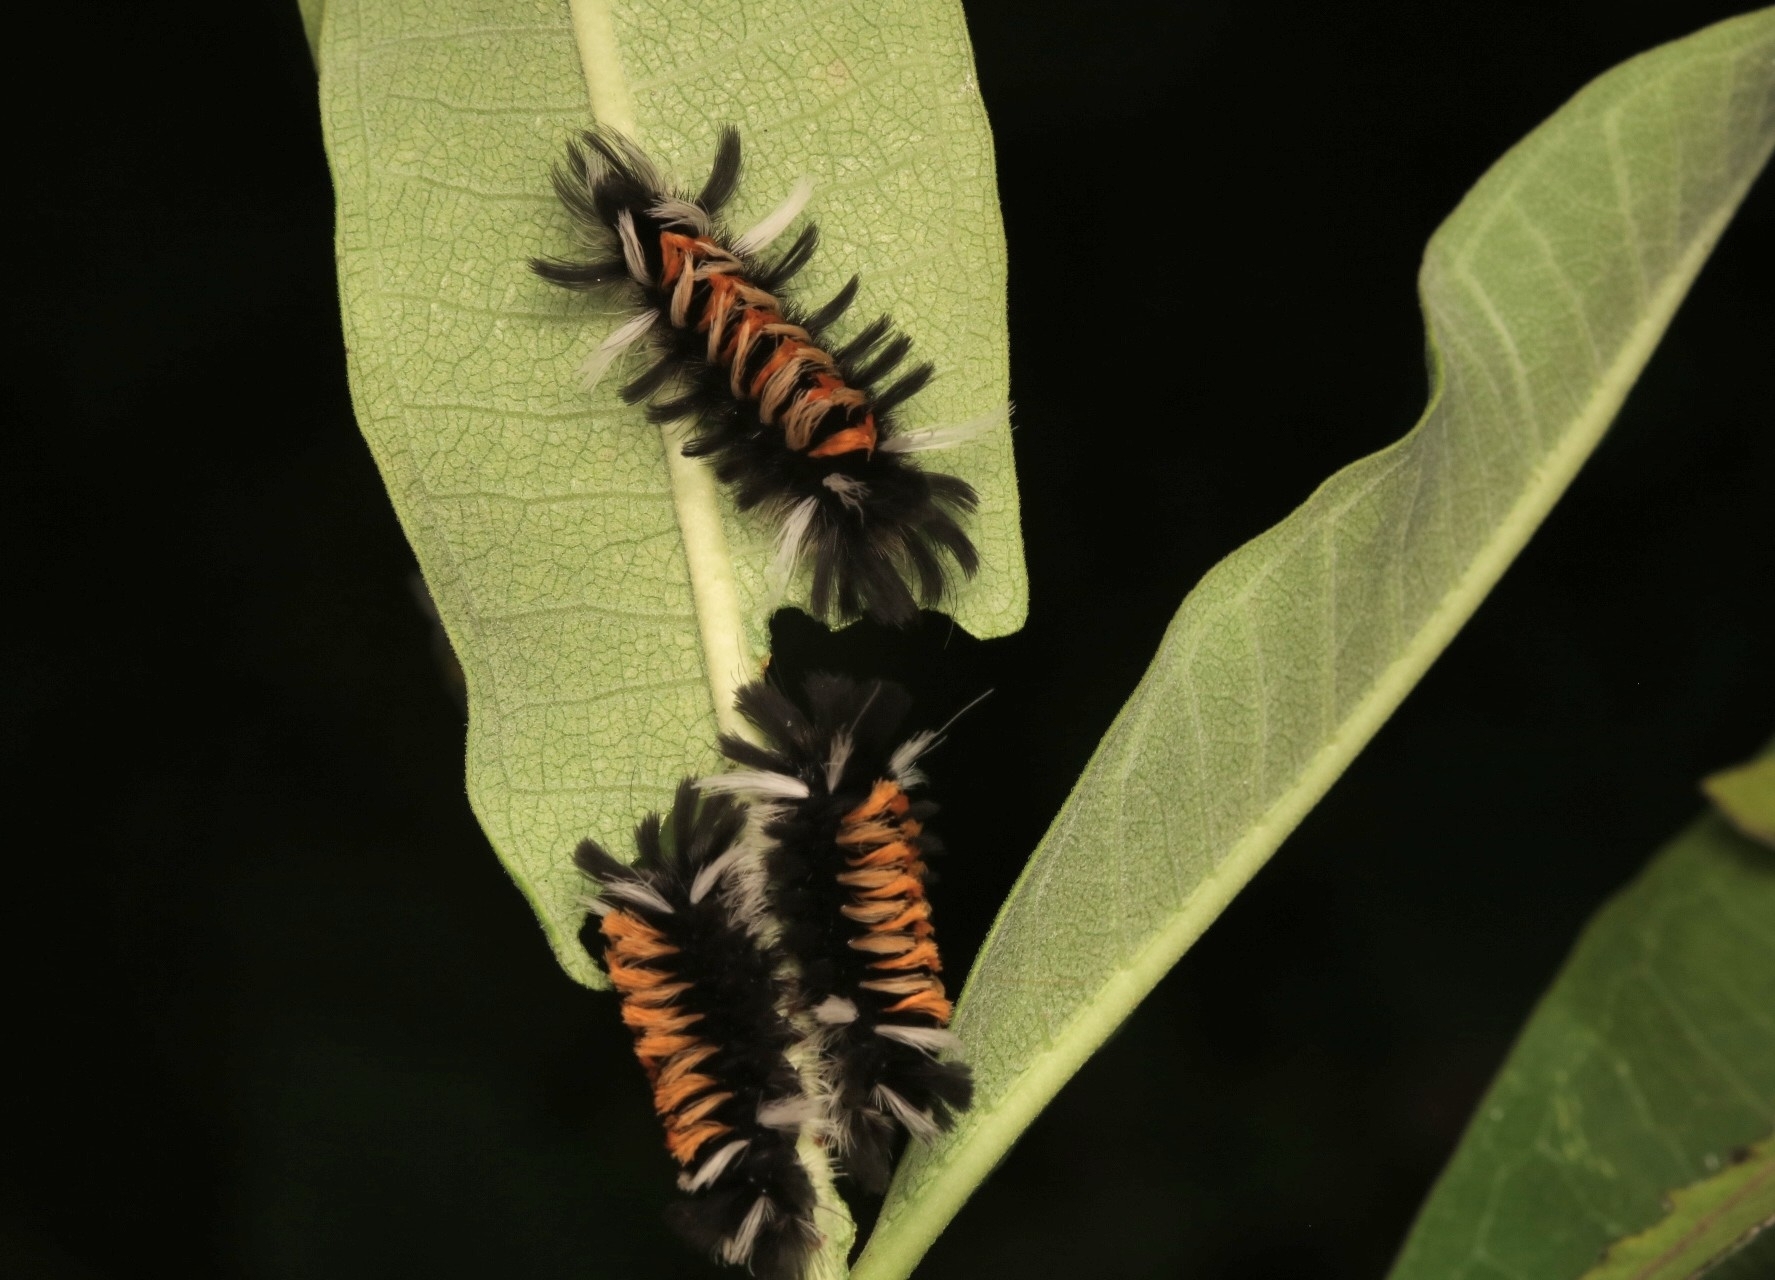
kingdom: Animalia
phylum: Arthropoda
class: Insecta
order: Lepidoptera
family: Erebidae
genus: Euchaetes
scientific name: Euchaetes egle
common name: Milkweed tussock moth
